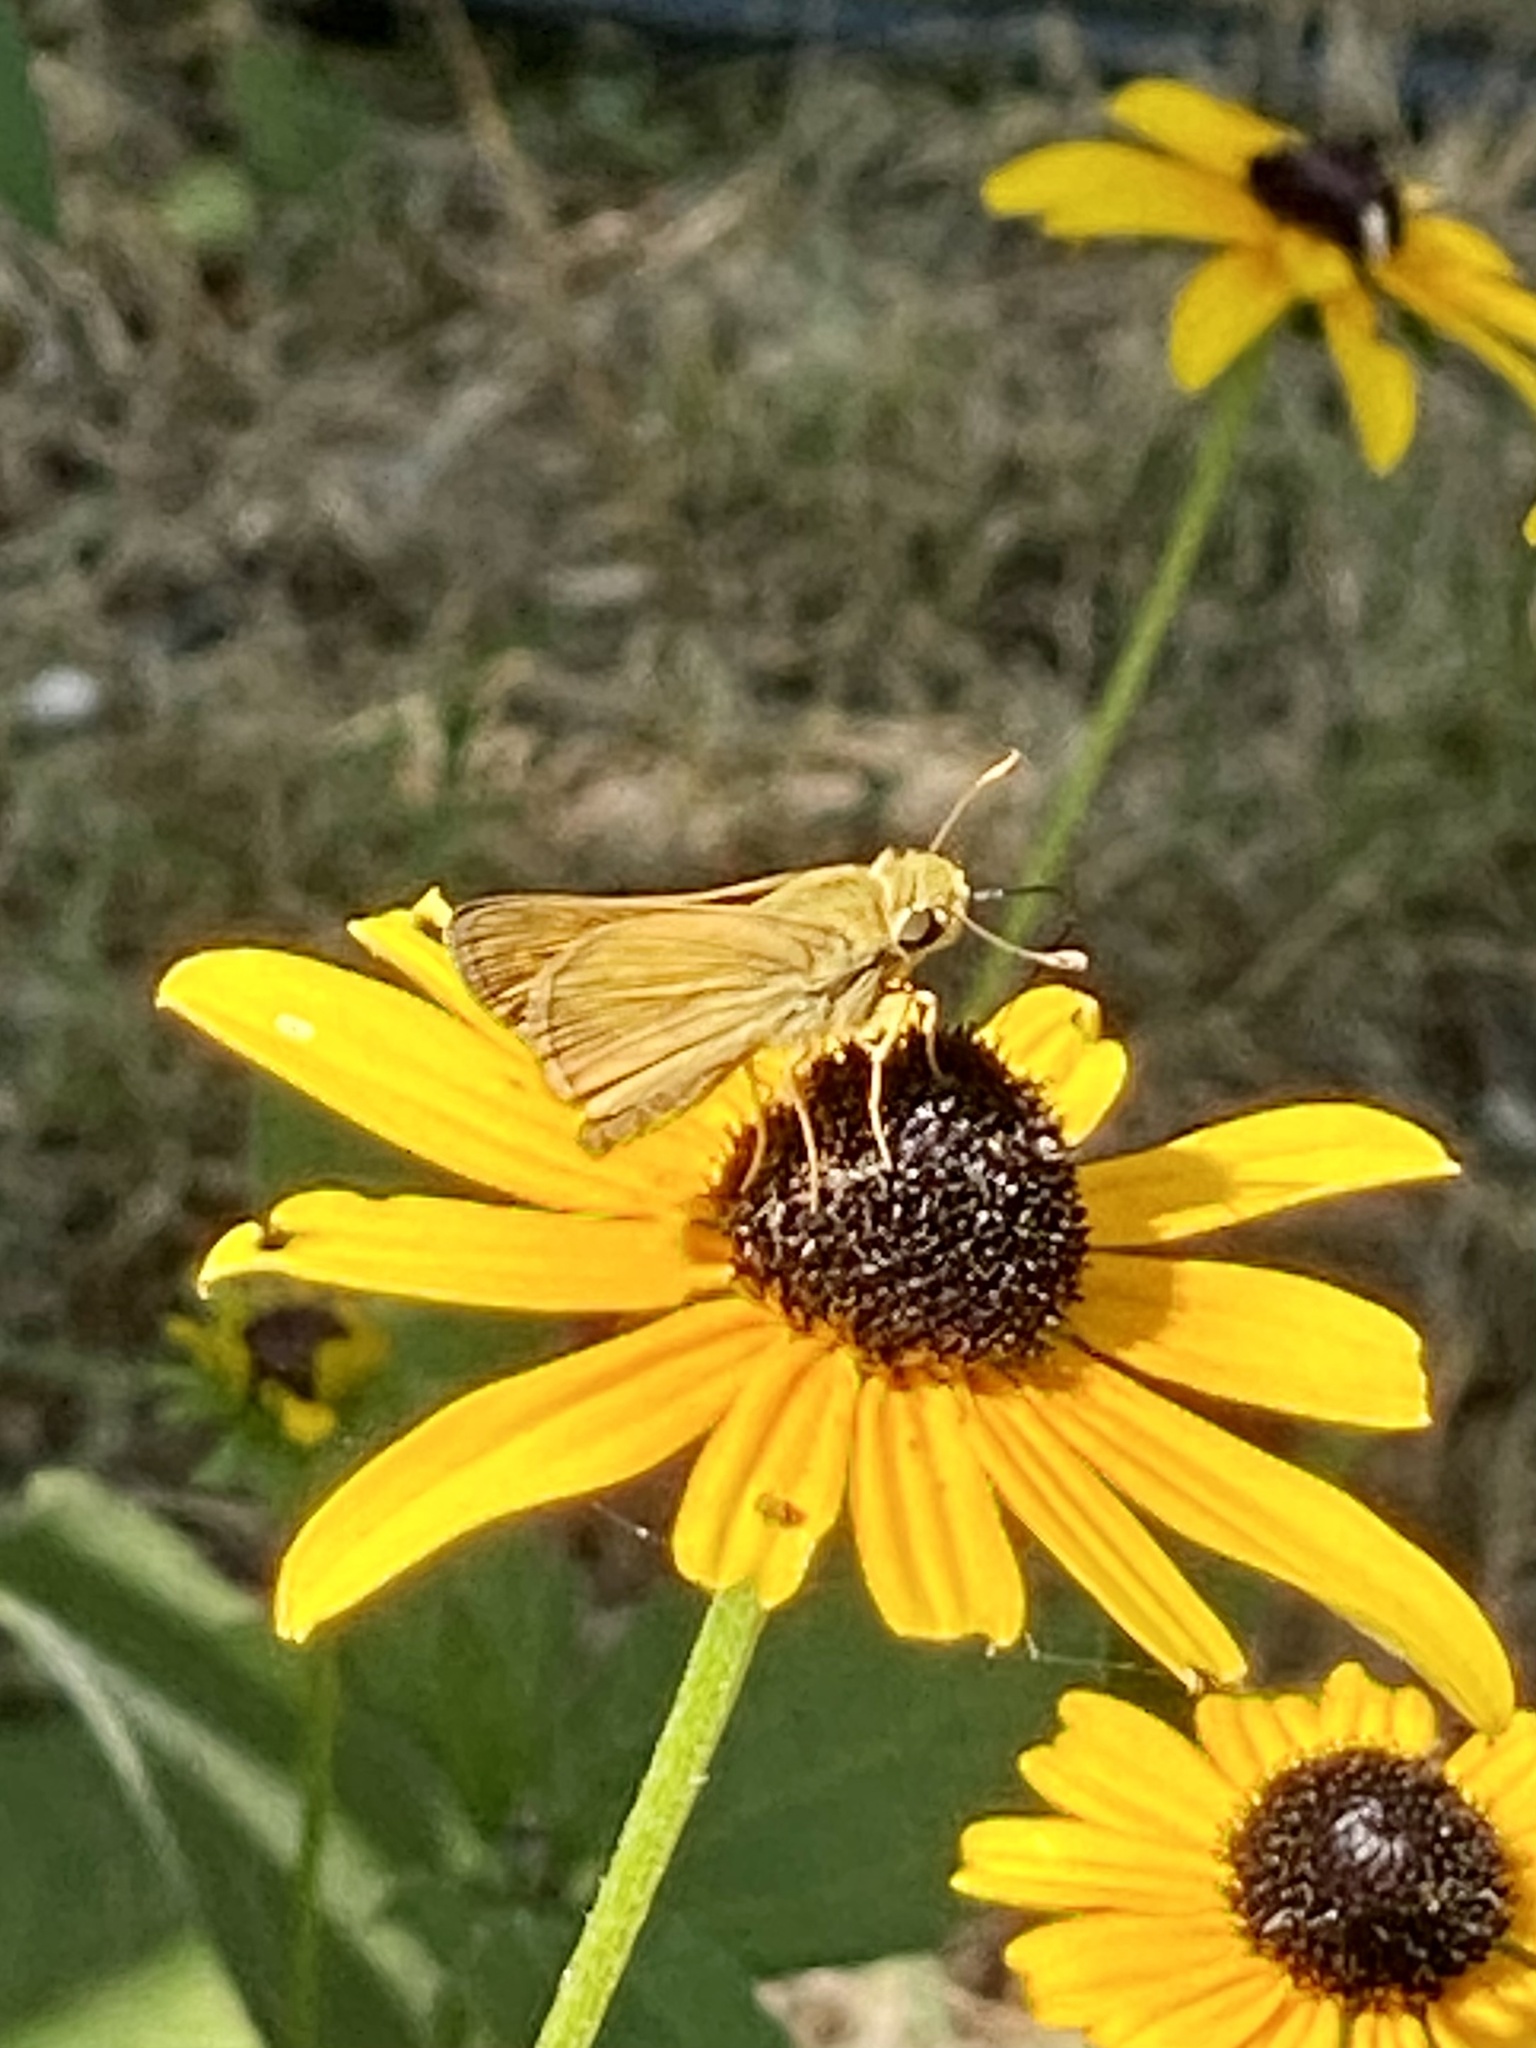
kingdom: Animalia
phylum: Arthropoda
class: Insecta
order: Lepidoptera
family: Hesperiidae
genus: Atalopedes
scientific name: Atalopedes
